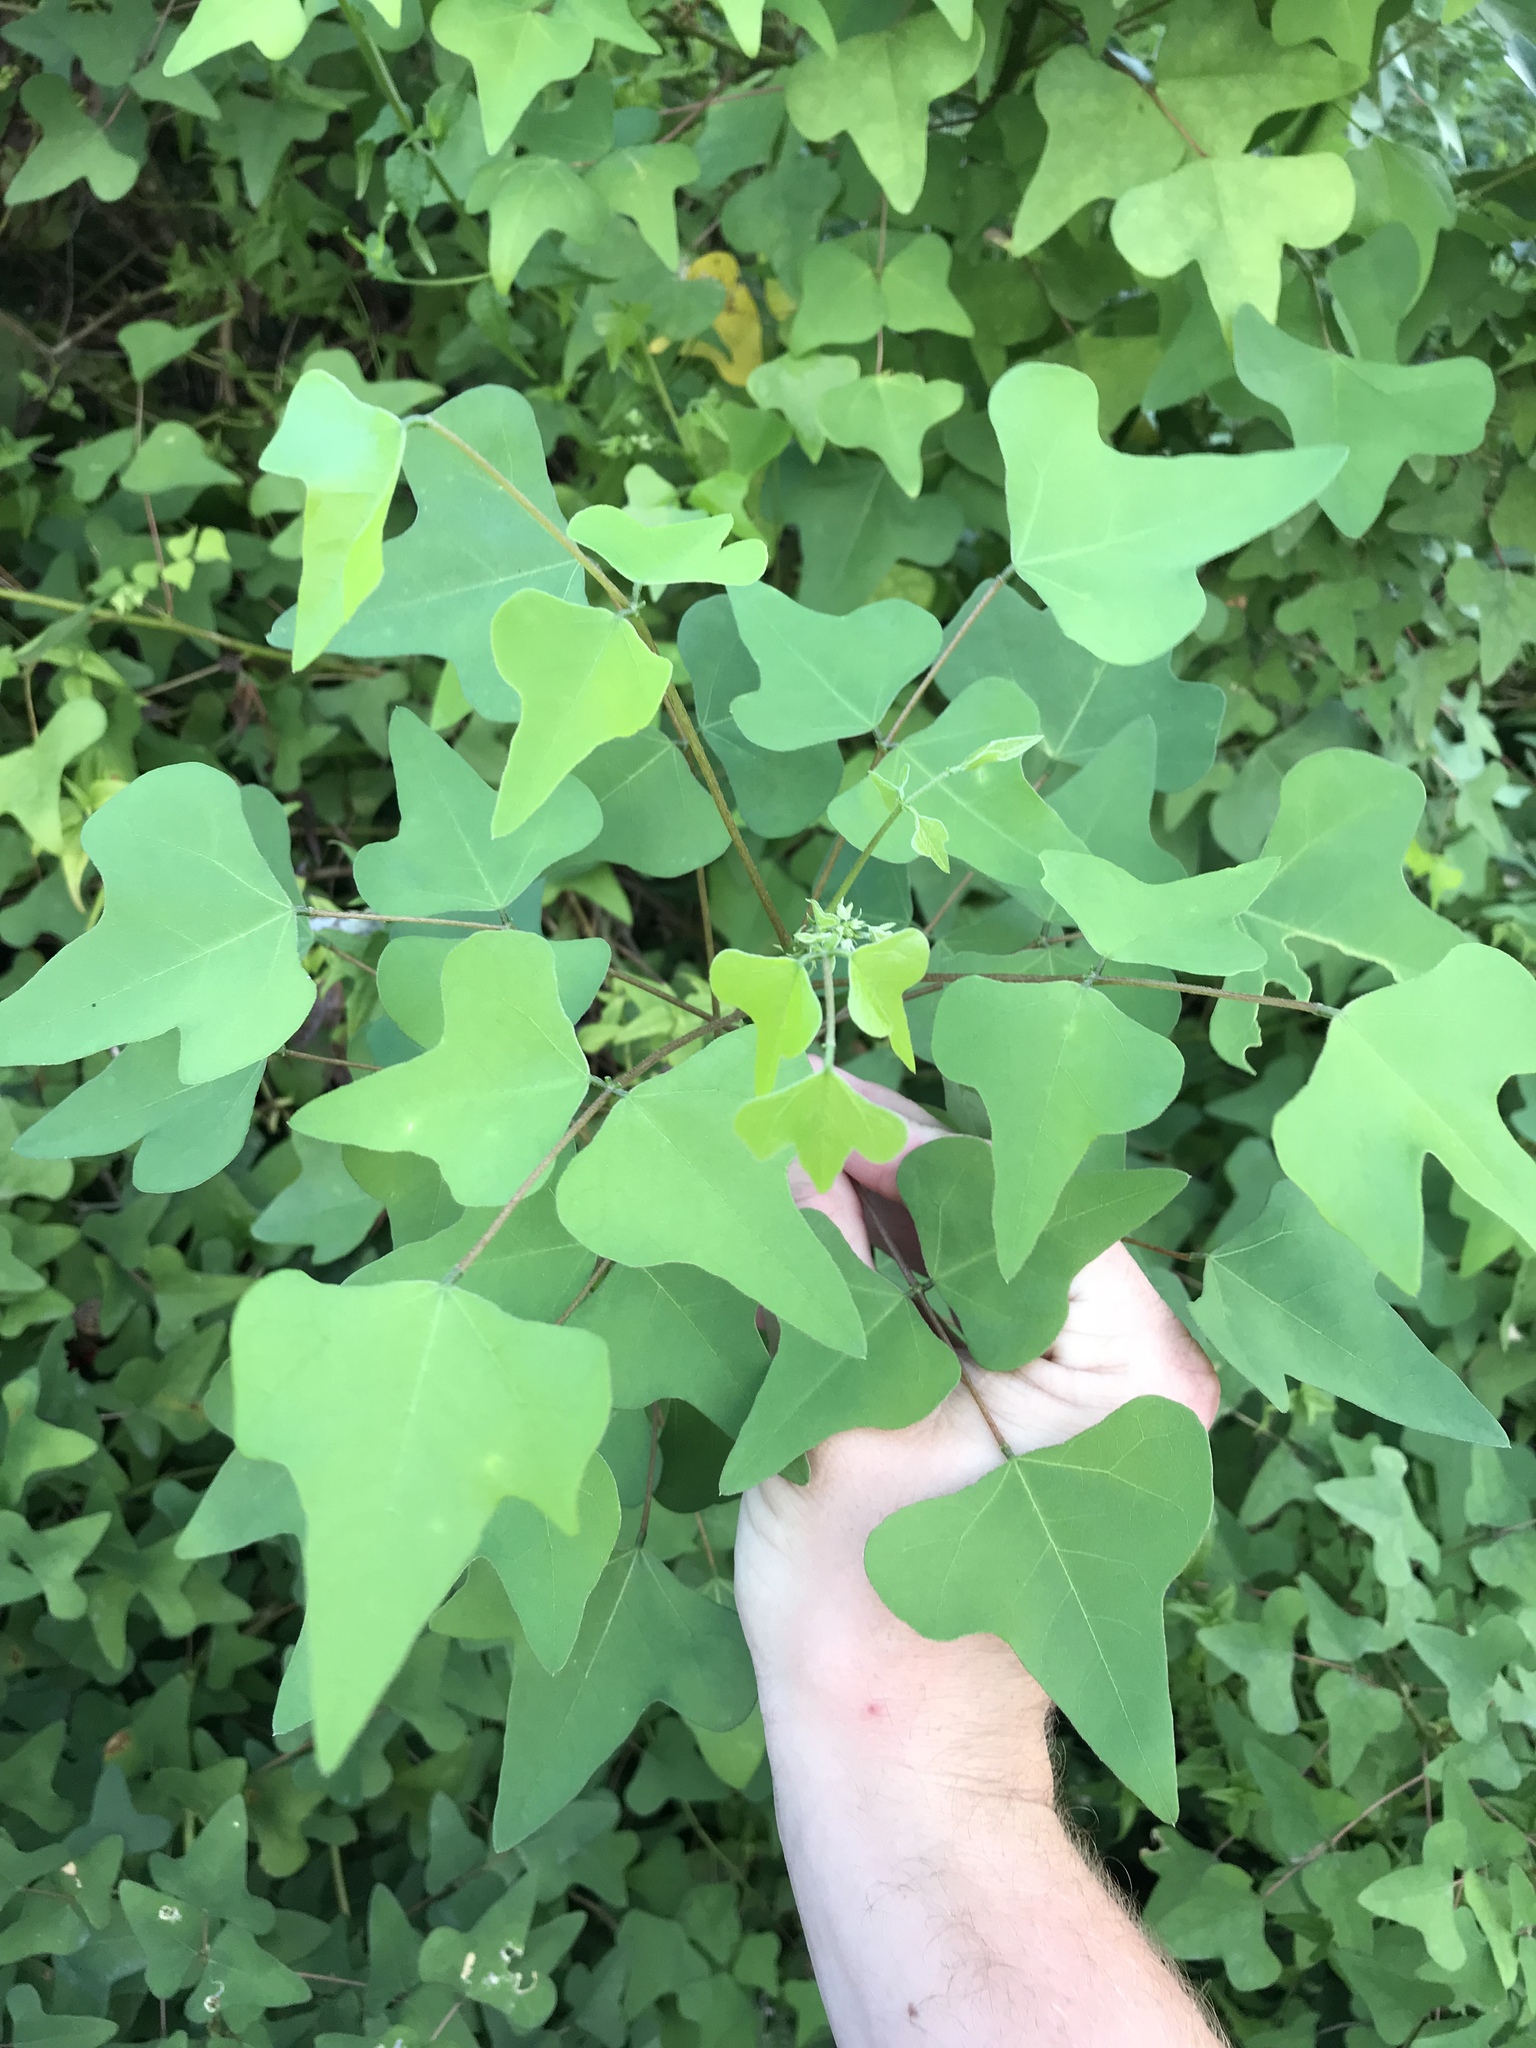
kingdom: Plantae
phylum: Tracheophyta
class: Magnoliopsida
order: Fabales
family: Fabaceae
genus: Erythrina
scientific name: Erythrina herbacea
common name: Coral-bean
